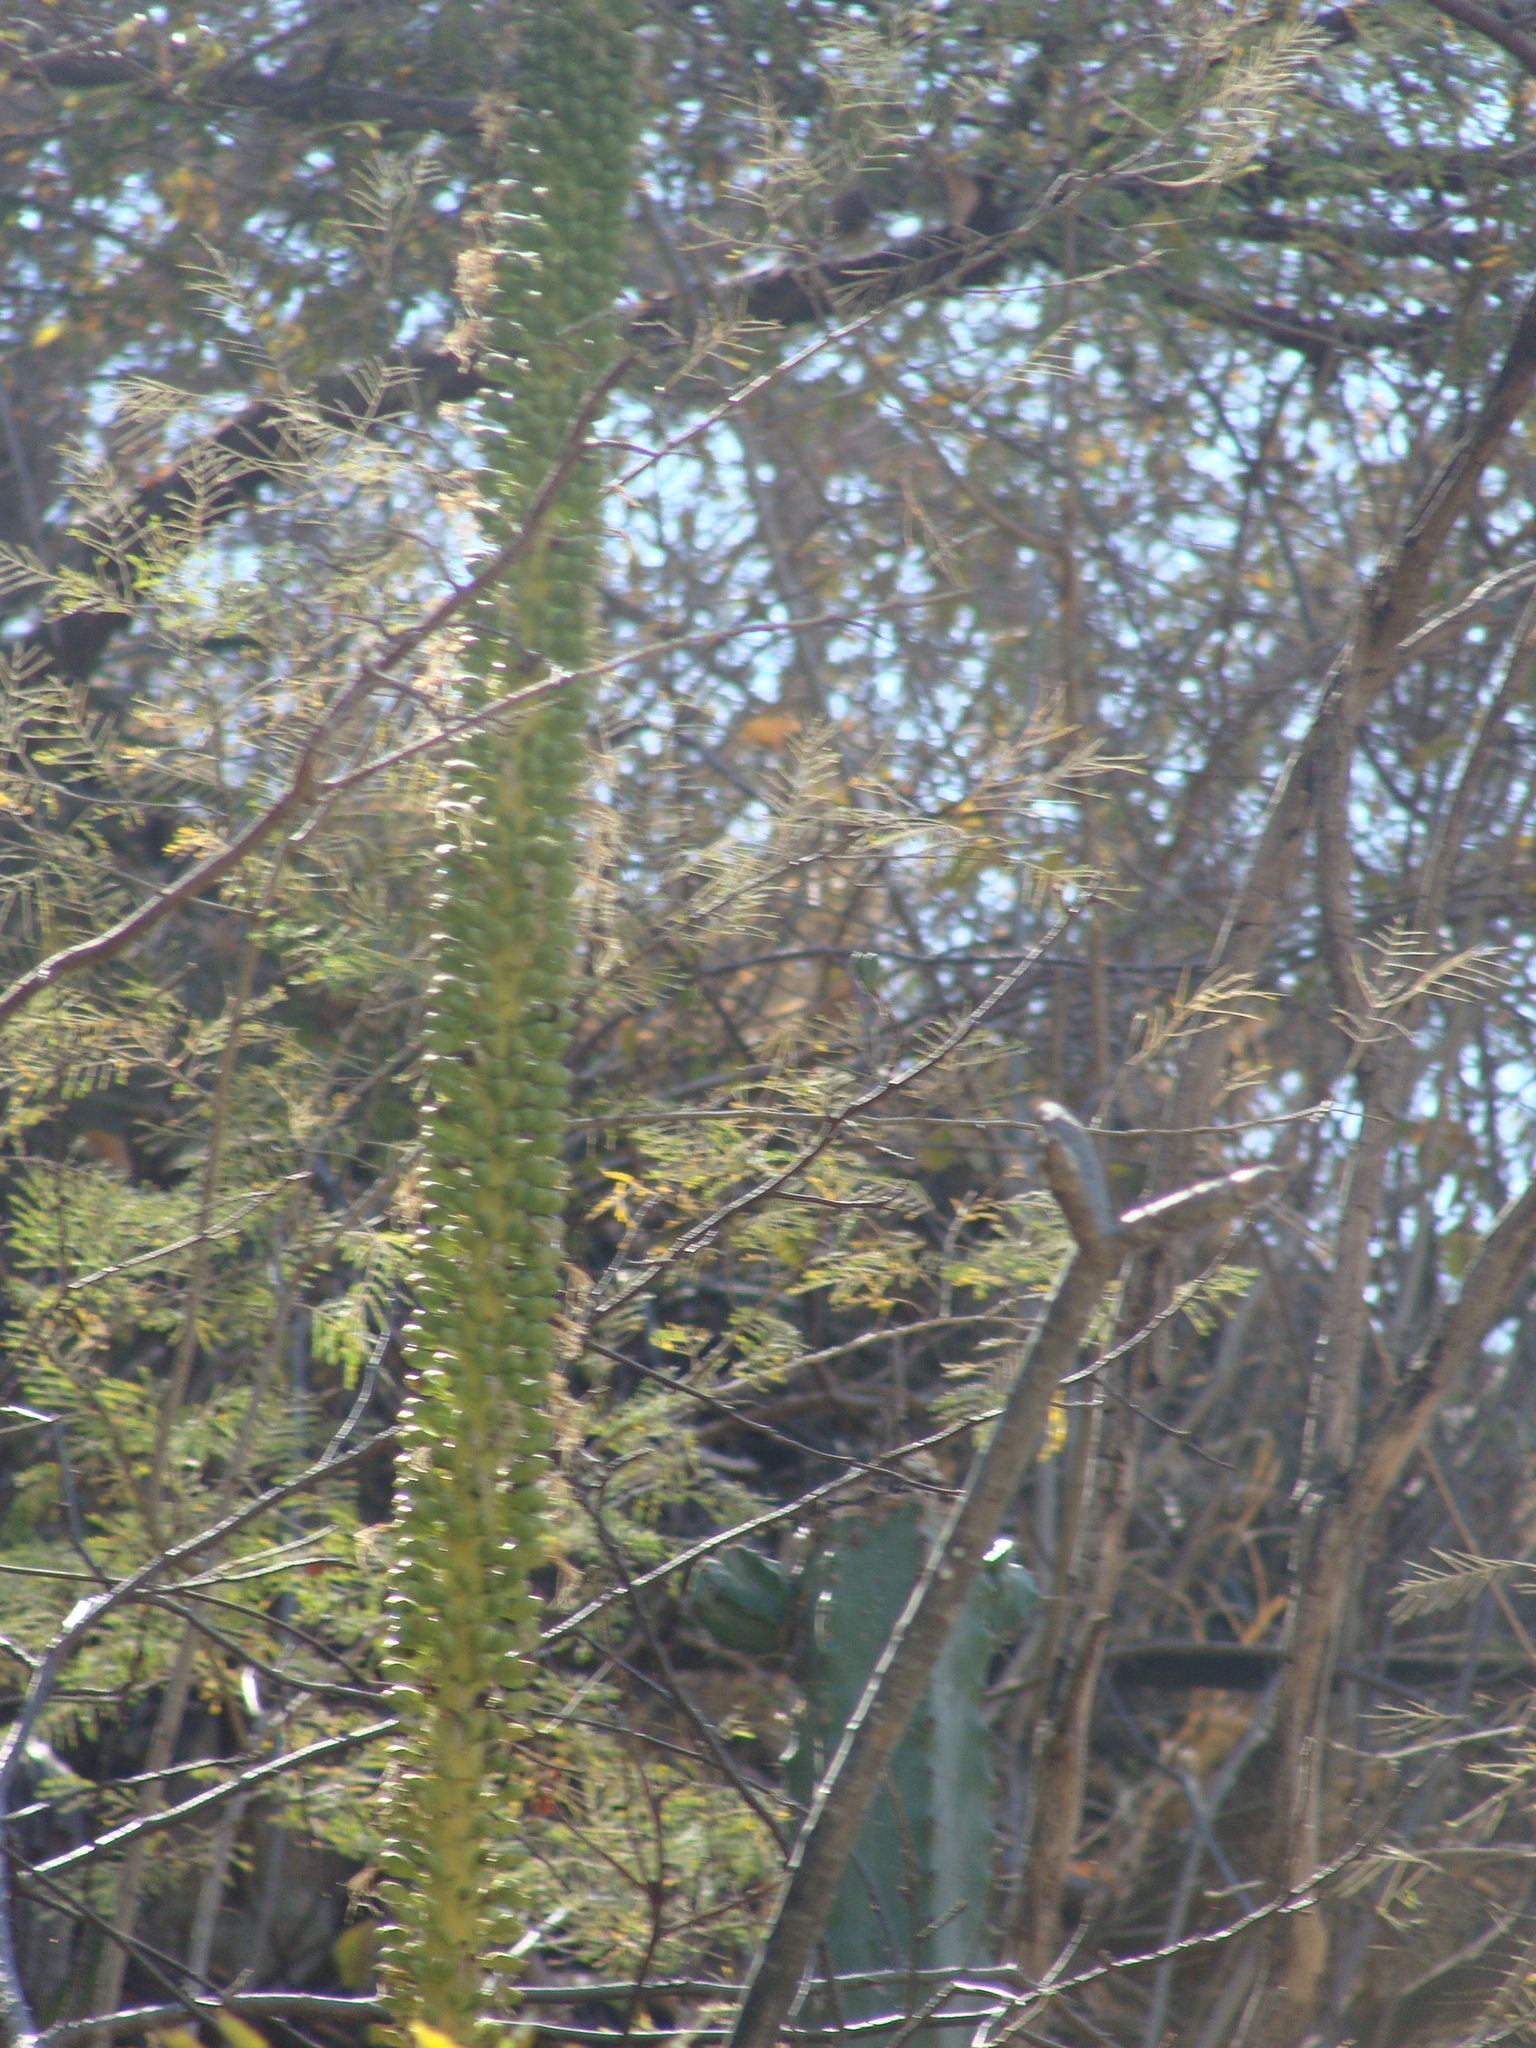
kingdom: Plantae
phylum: Tracheophyta
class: Liliopsida
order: Asparagales
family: Asparagaceae
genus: Agave
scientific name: Agave convallis
